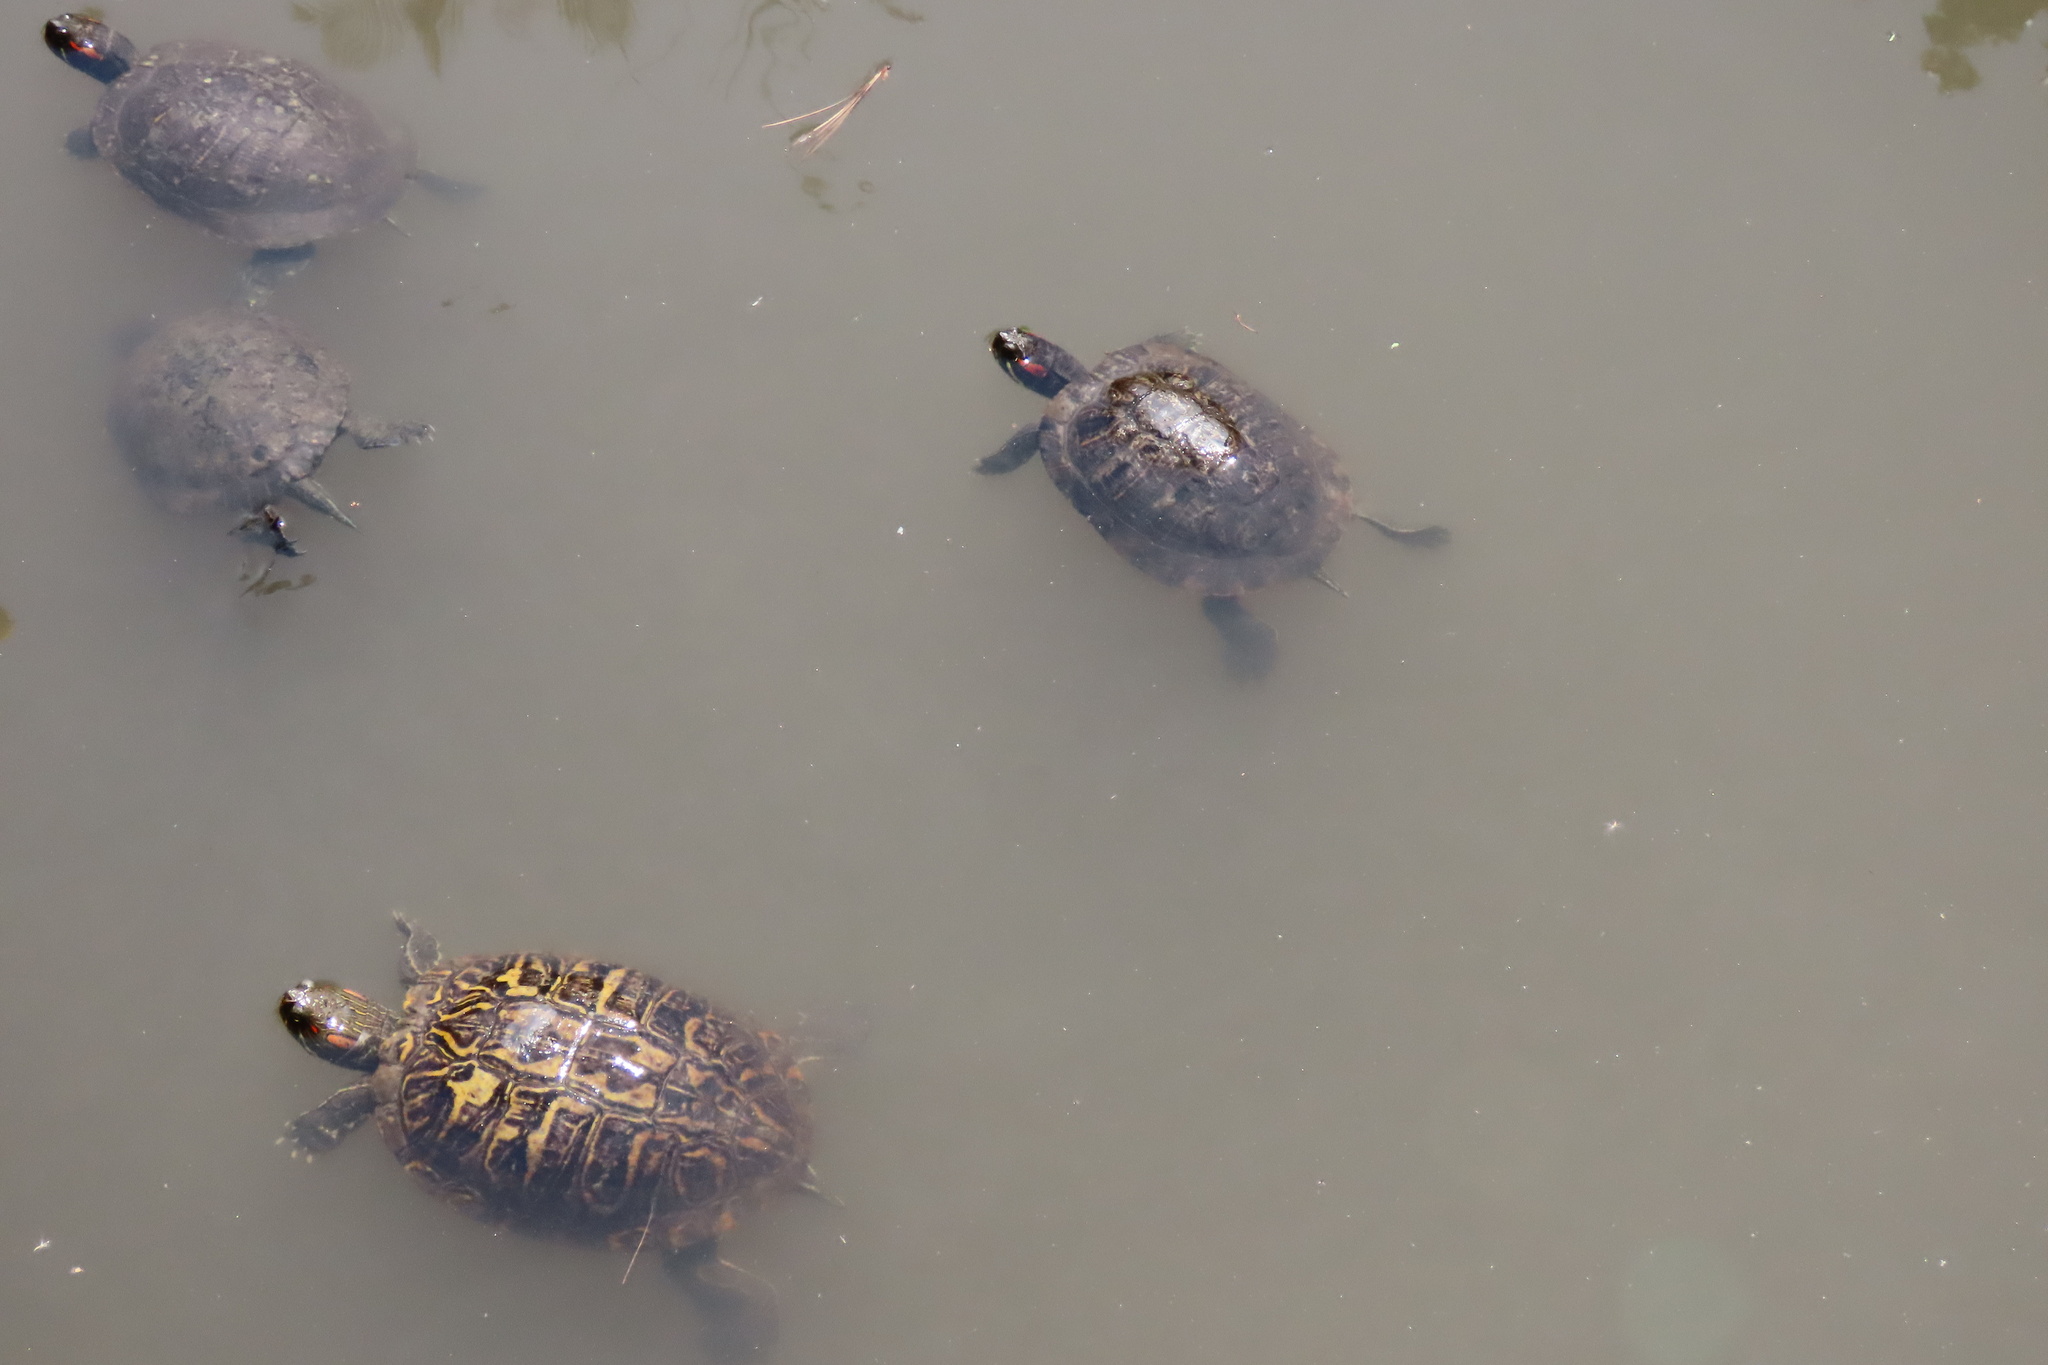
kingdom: Animalia
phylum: Chordata
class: Testudines
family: Emydidae
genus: Trachemys
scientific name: Trachemys scripta
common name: Slider
